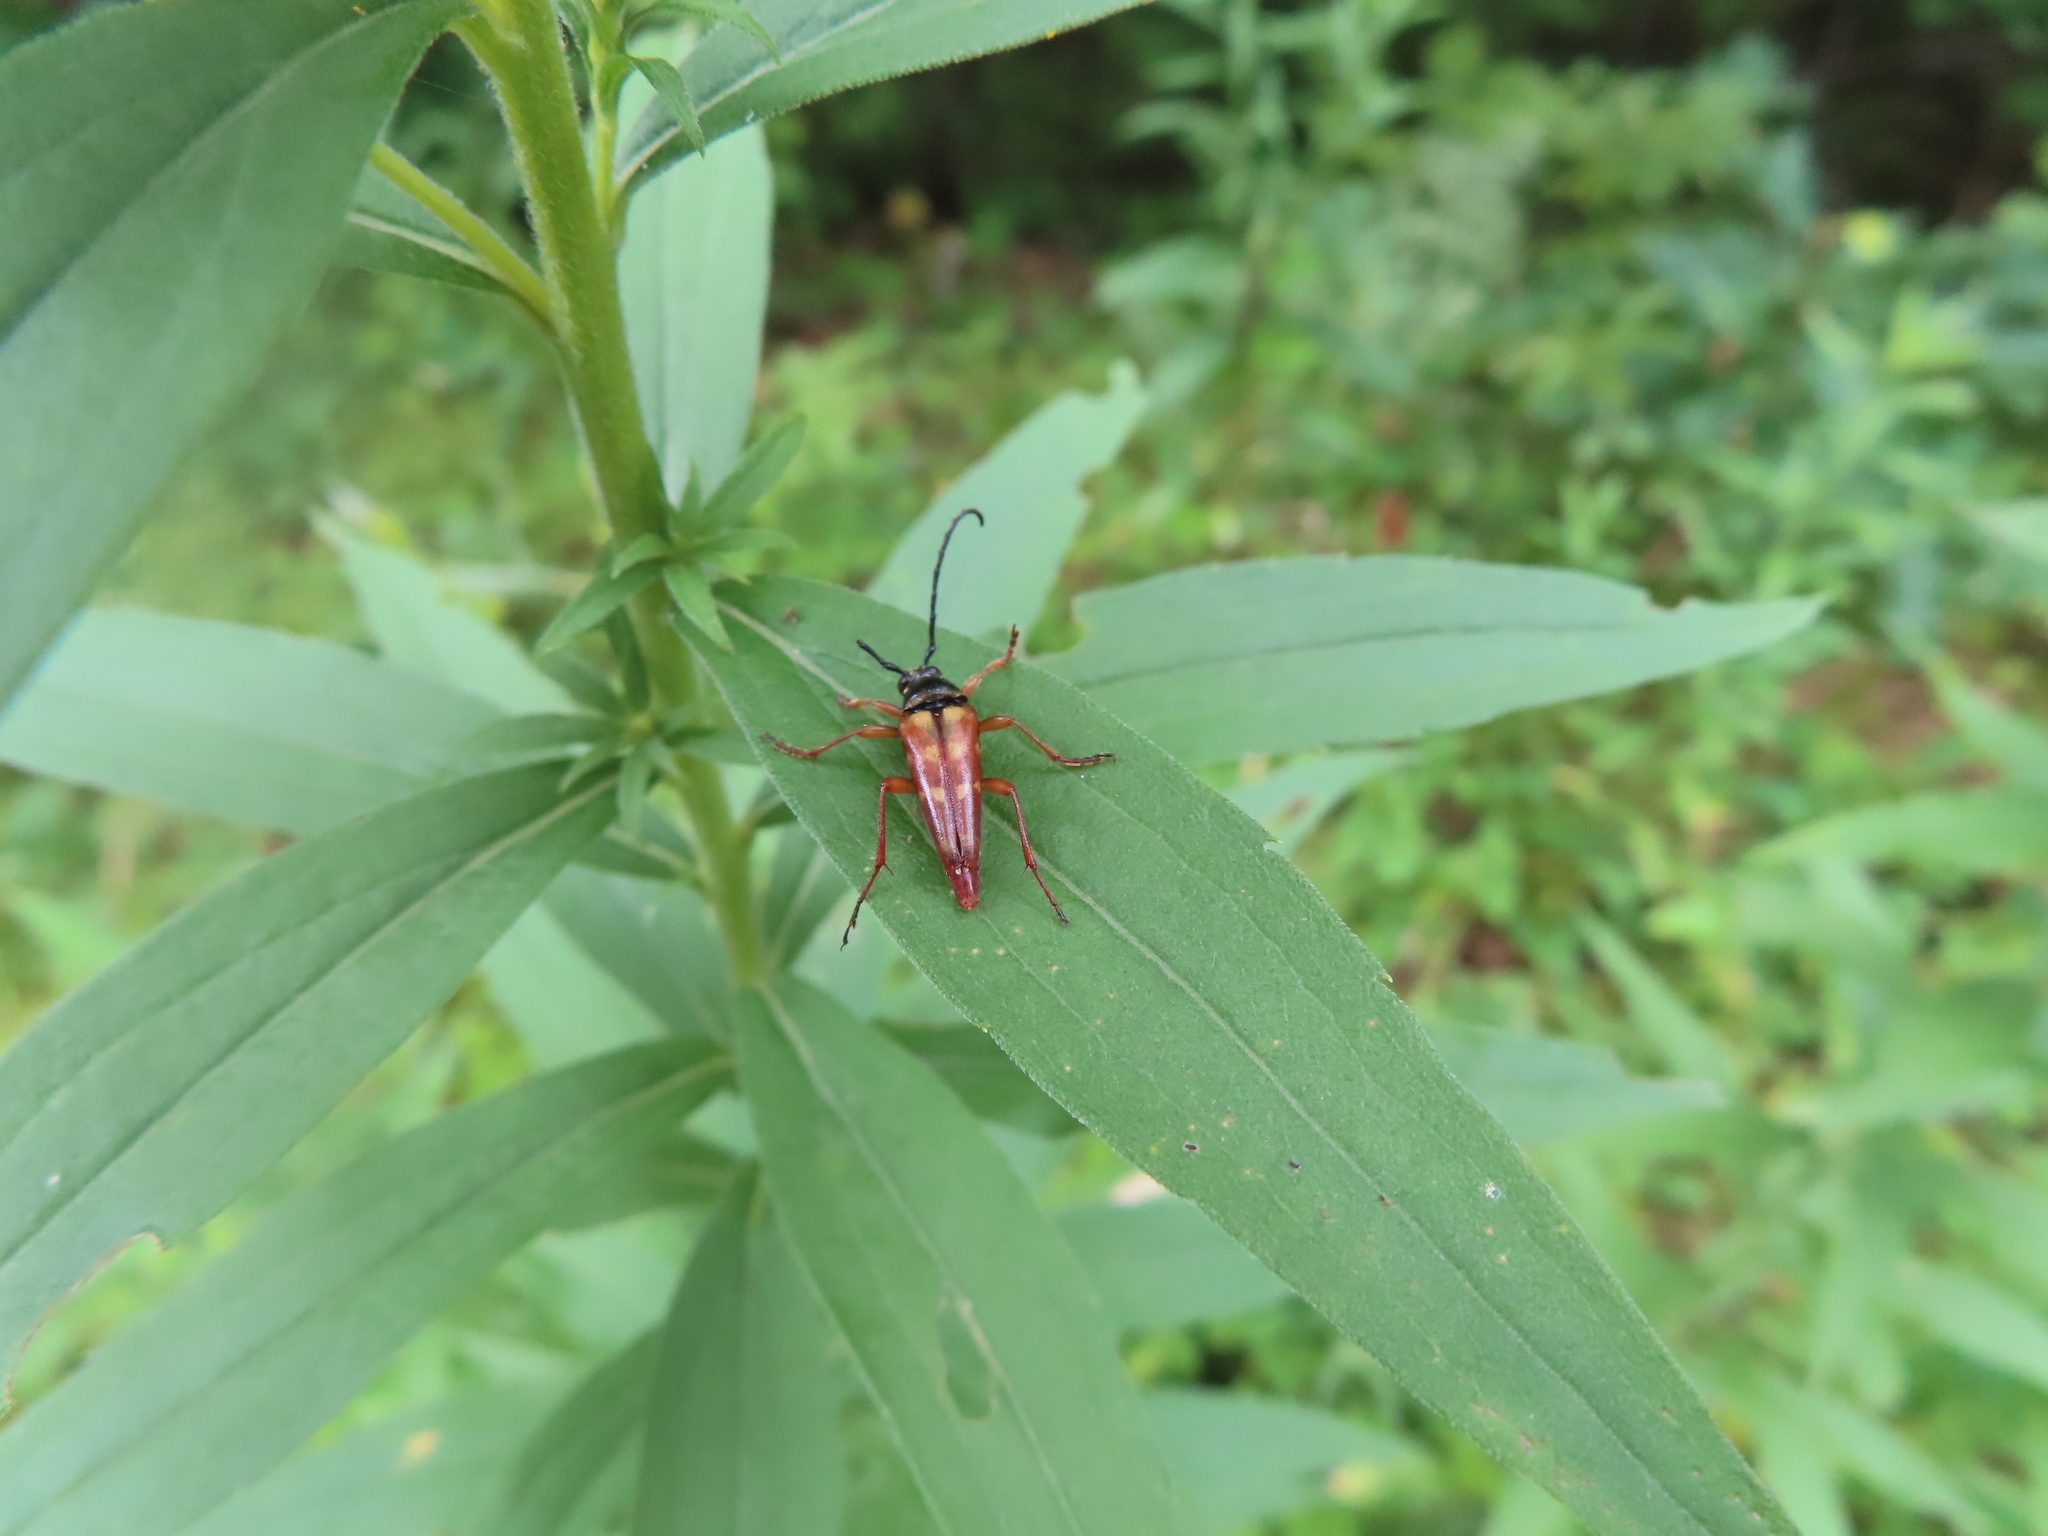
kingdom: Animalia
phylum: Arthropoda
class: Insecta
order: Coleoptera
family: Cerambycidae
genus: Typocerus
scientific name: Typocerus velutinus
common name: Banded longhorn beetle
